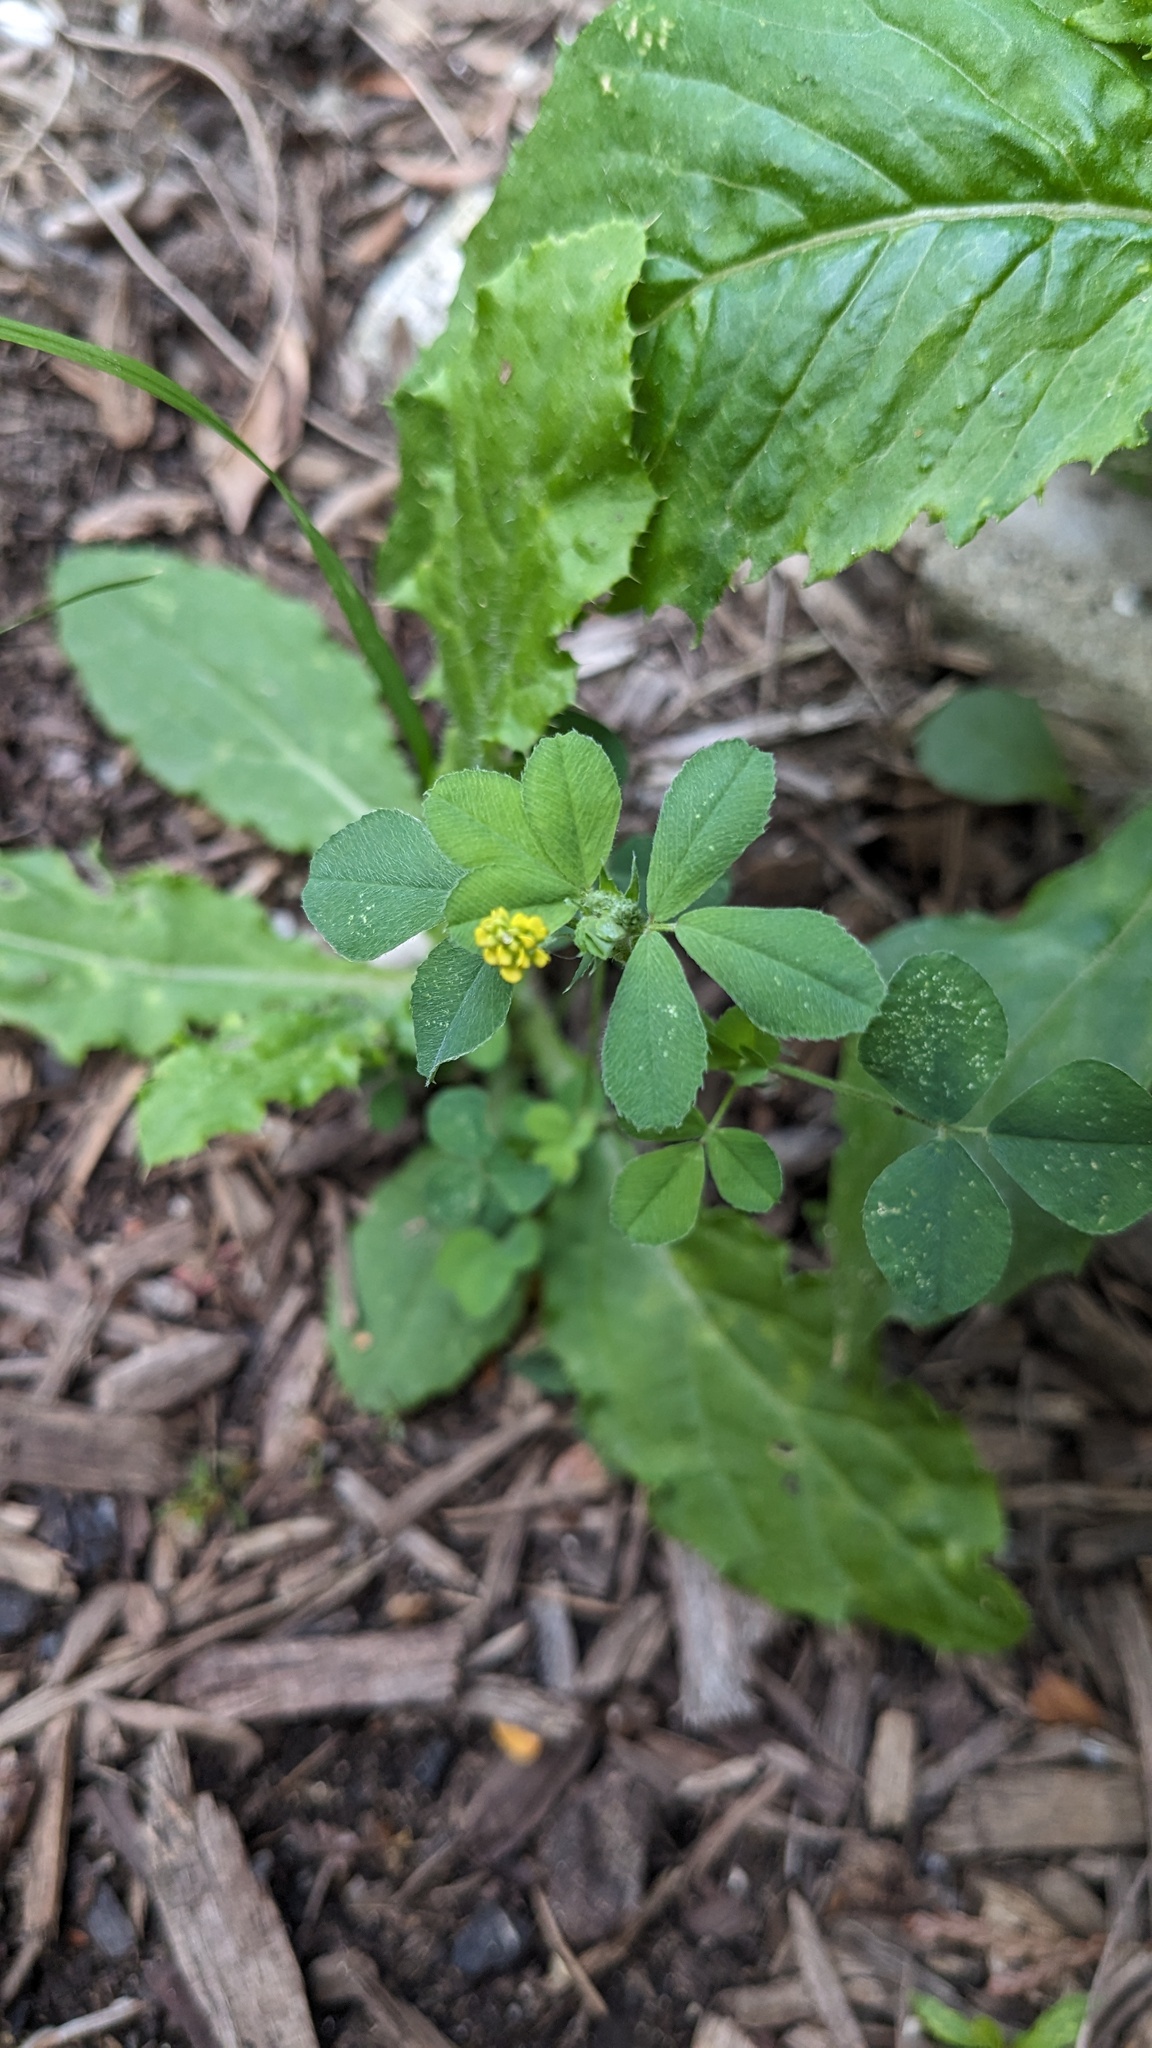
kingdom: Plantae
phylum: Tracheophyta
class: Magnoliopsida
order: Fabales
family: Fabaceae
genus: Medicago
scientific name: Medicago lupulina
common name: Black medick
